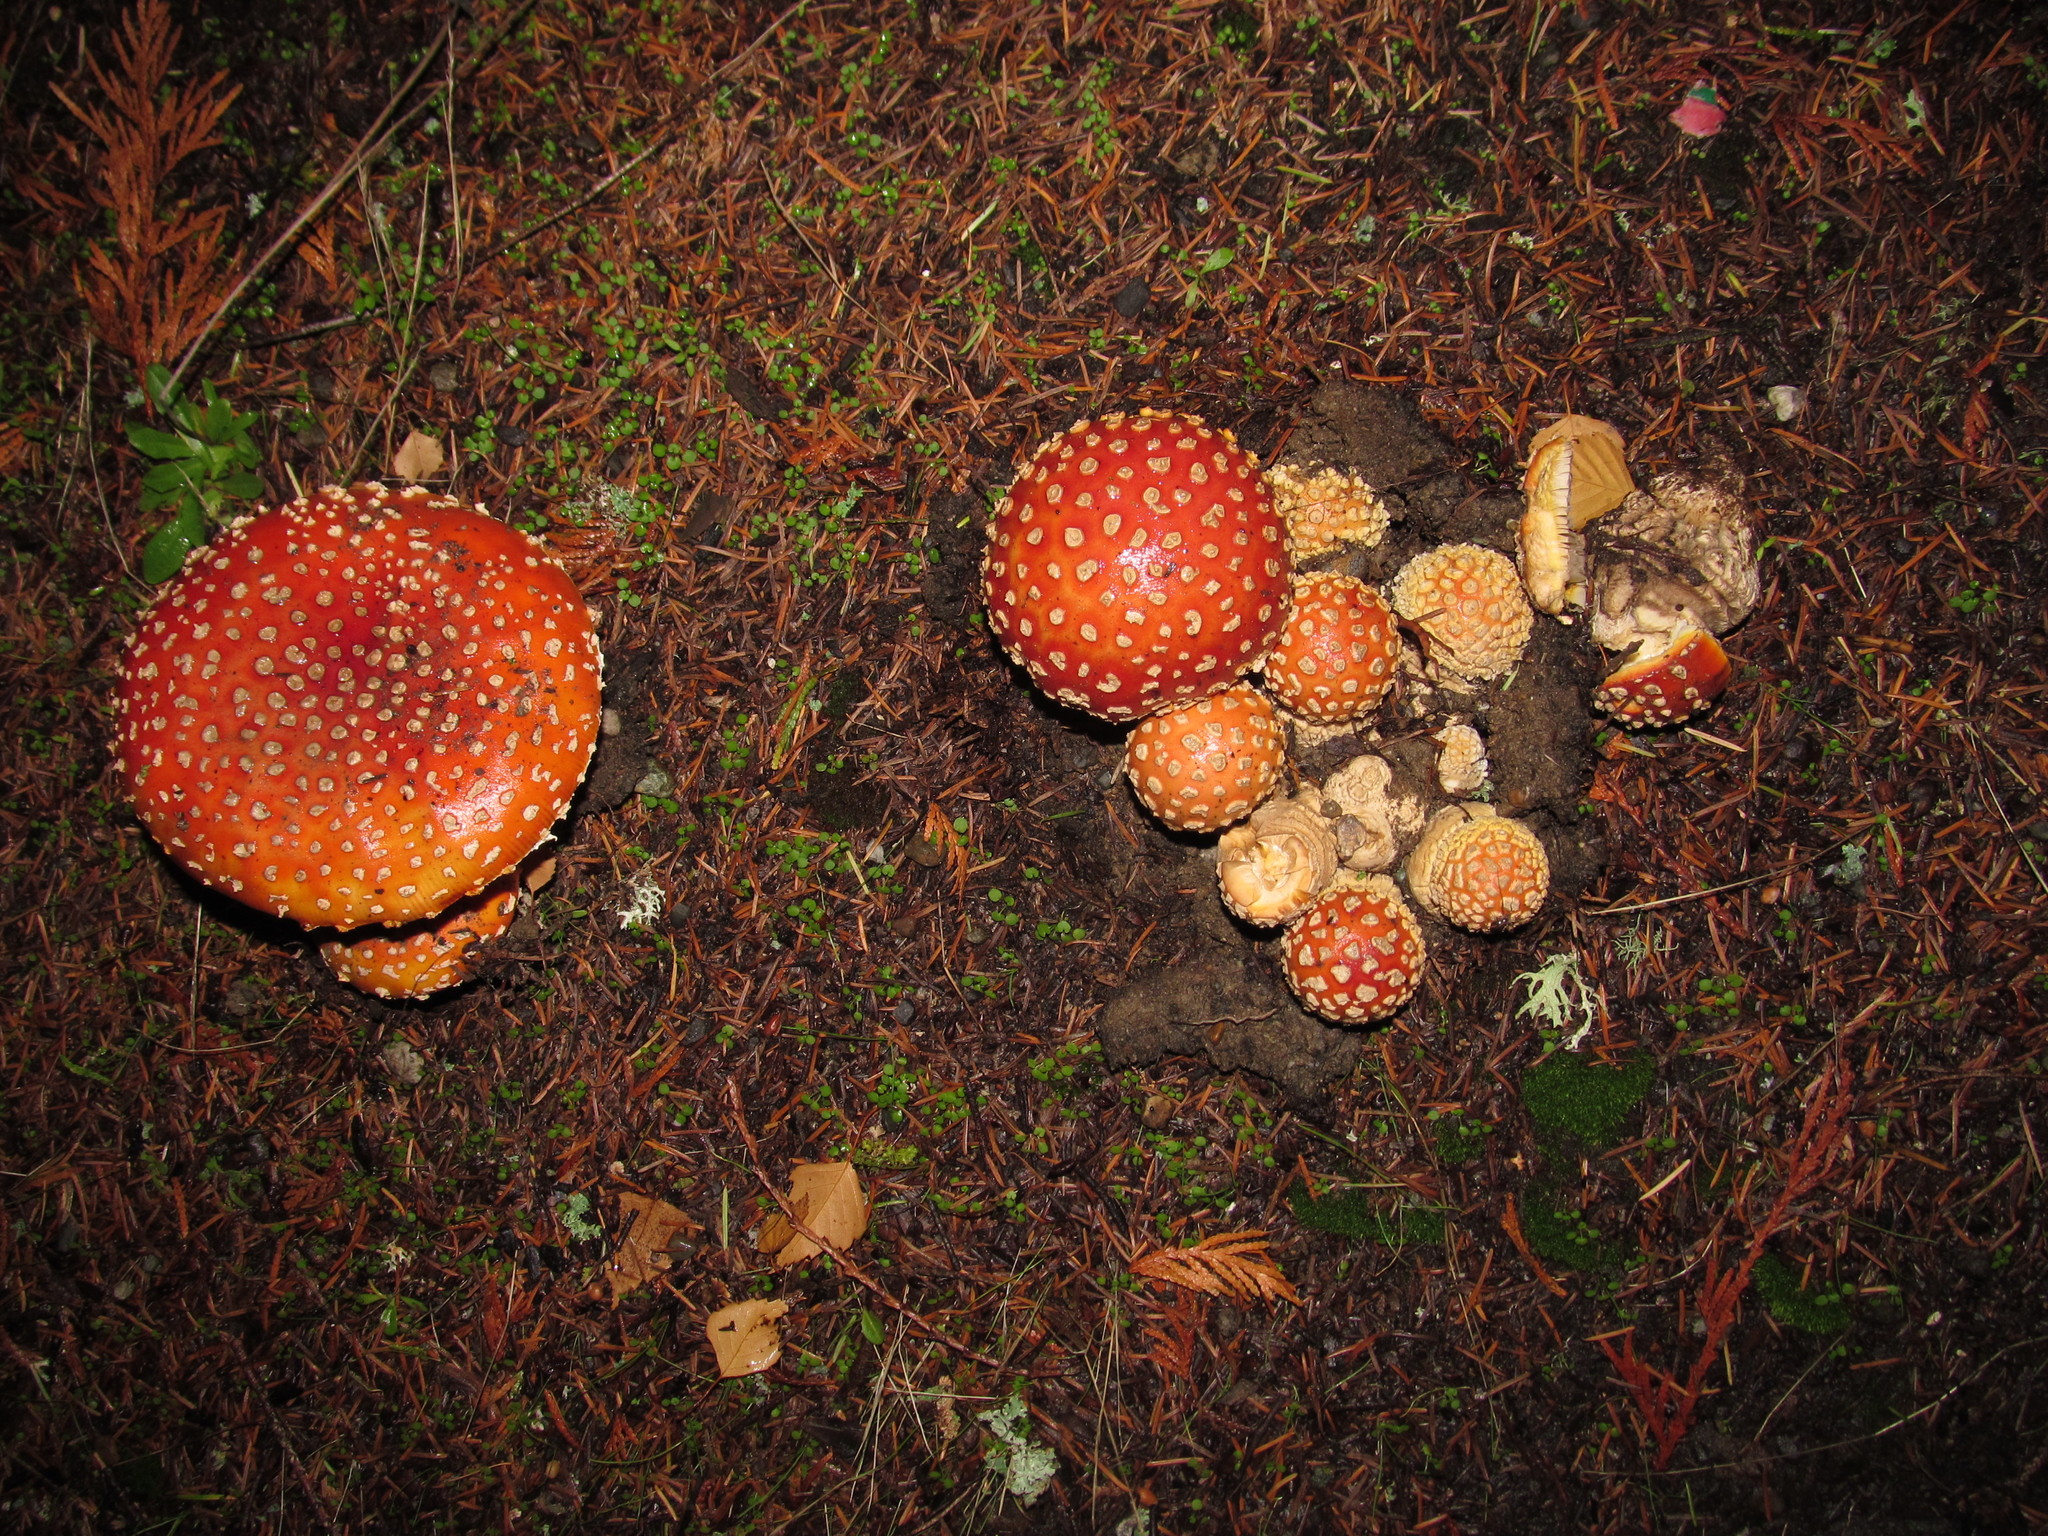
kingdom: Fungi
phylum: Basidiomycota
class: Agaricomycetes
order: Agaricales
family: Amanitaceae
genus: Amanita
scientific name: Amanita muscaria
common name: Fly agaric
